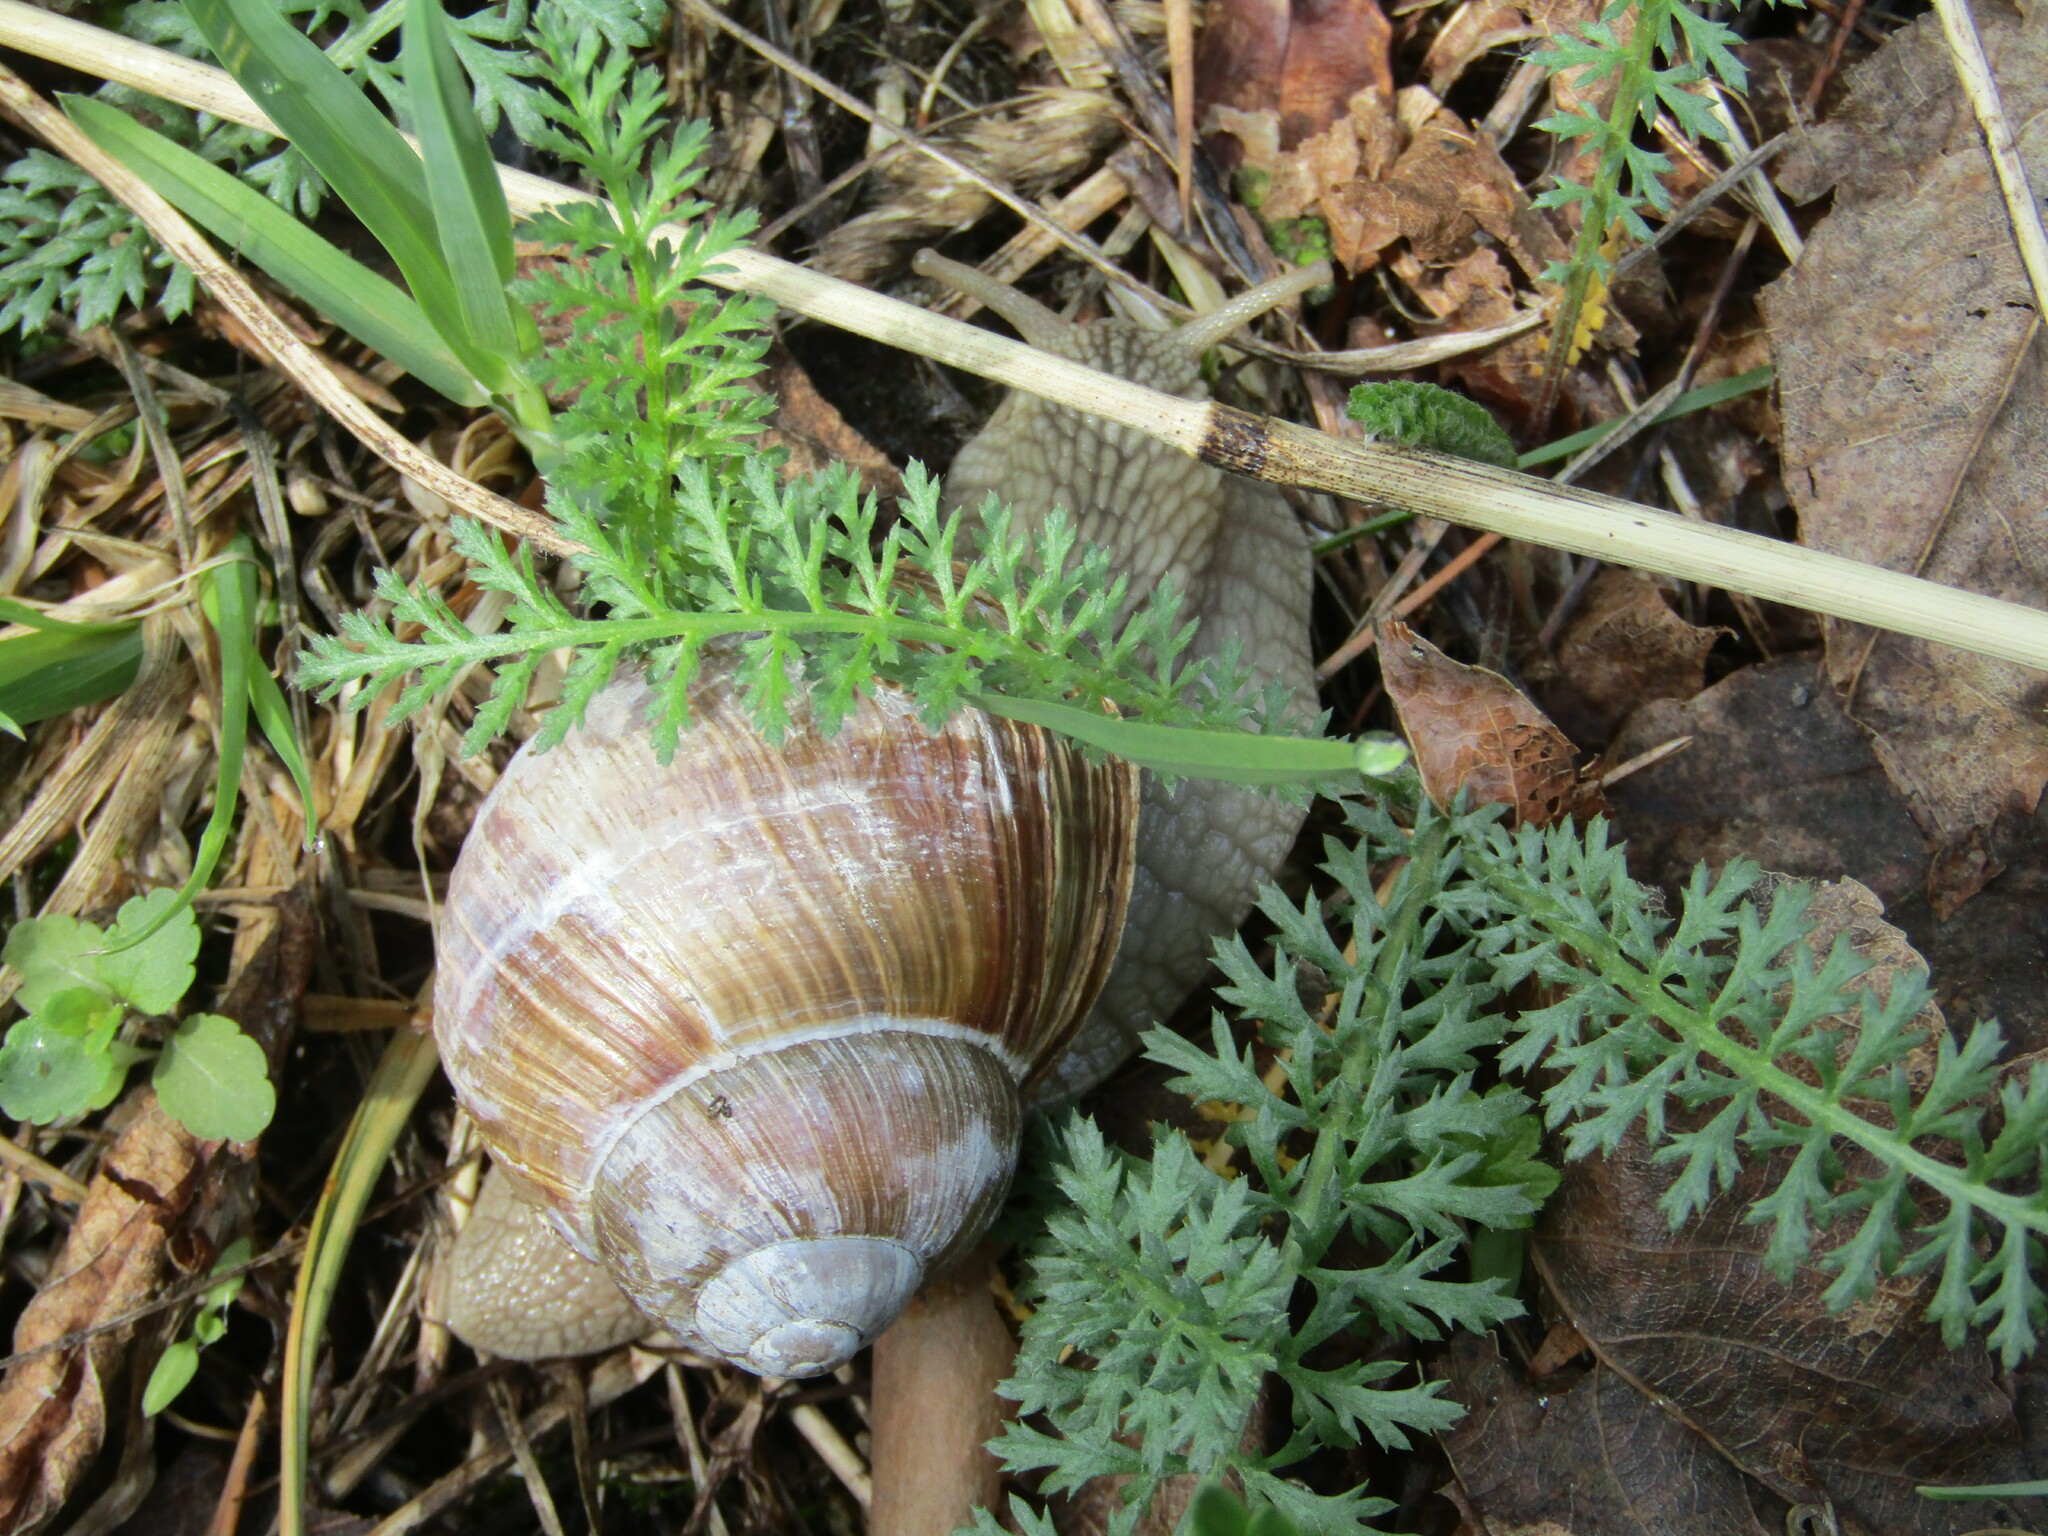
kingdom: Animalia
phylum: Mollusca
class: Gastropoda
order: Stylommatophora
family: Helicidae
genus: Helix
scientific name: Helix pomatia
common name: Roman snail
